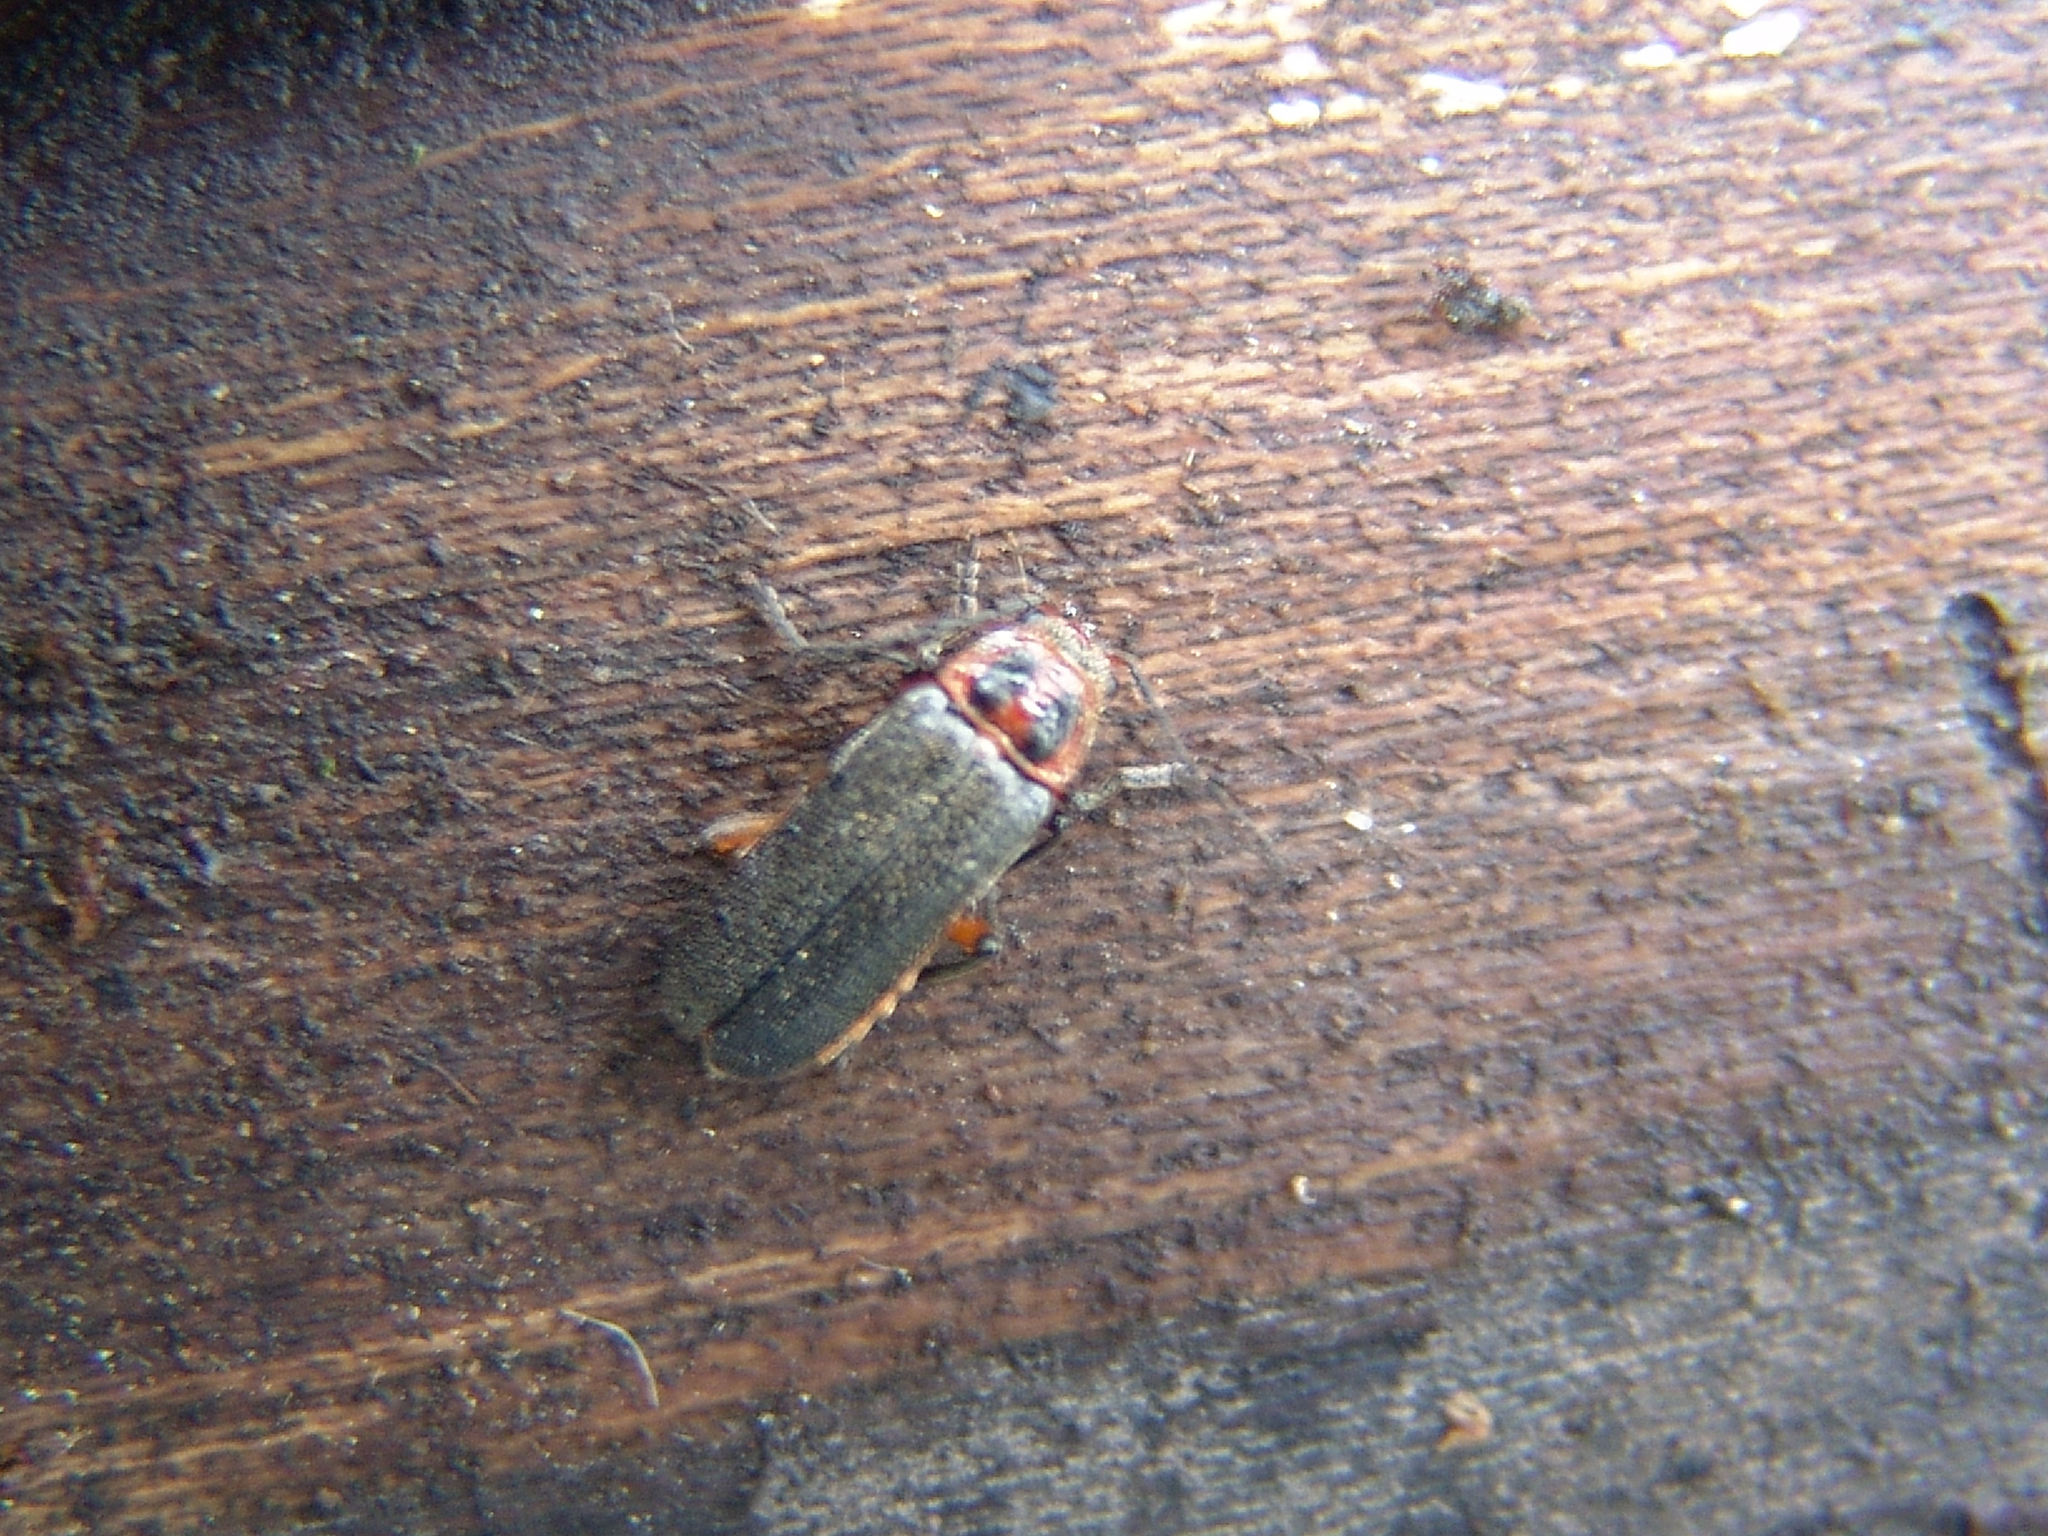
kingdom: Animalia
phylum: Arthropoda
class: Insecta
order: Coleoptera
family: Cantharidae
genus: Atalantycha
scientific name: Atalantycha bilineata
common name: Two-lined leatherwing
